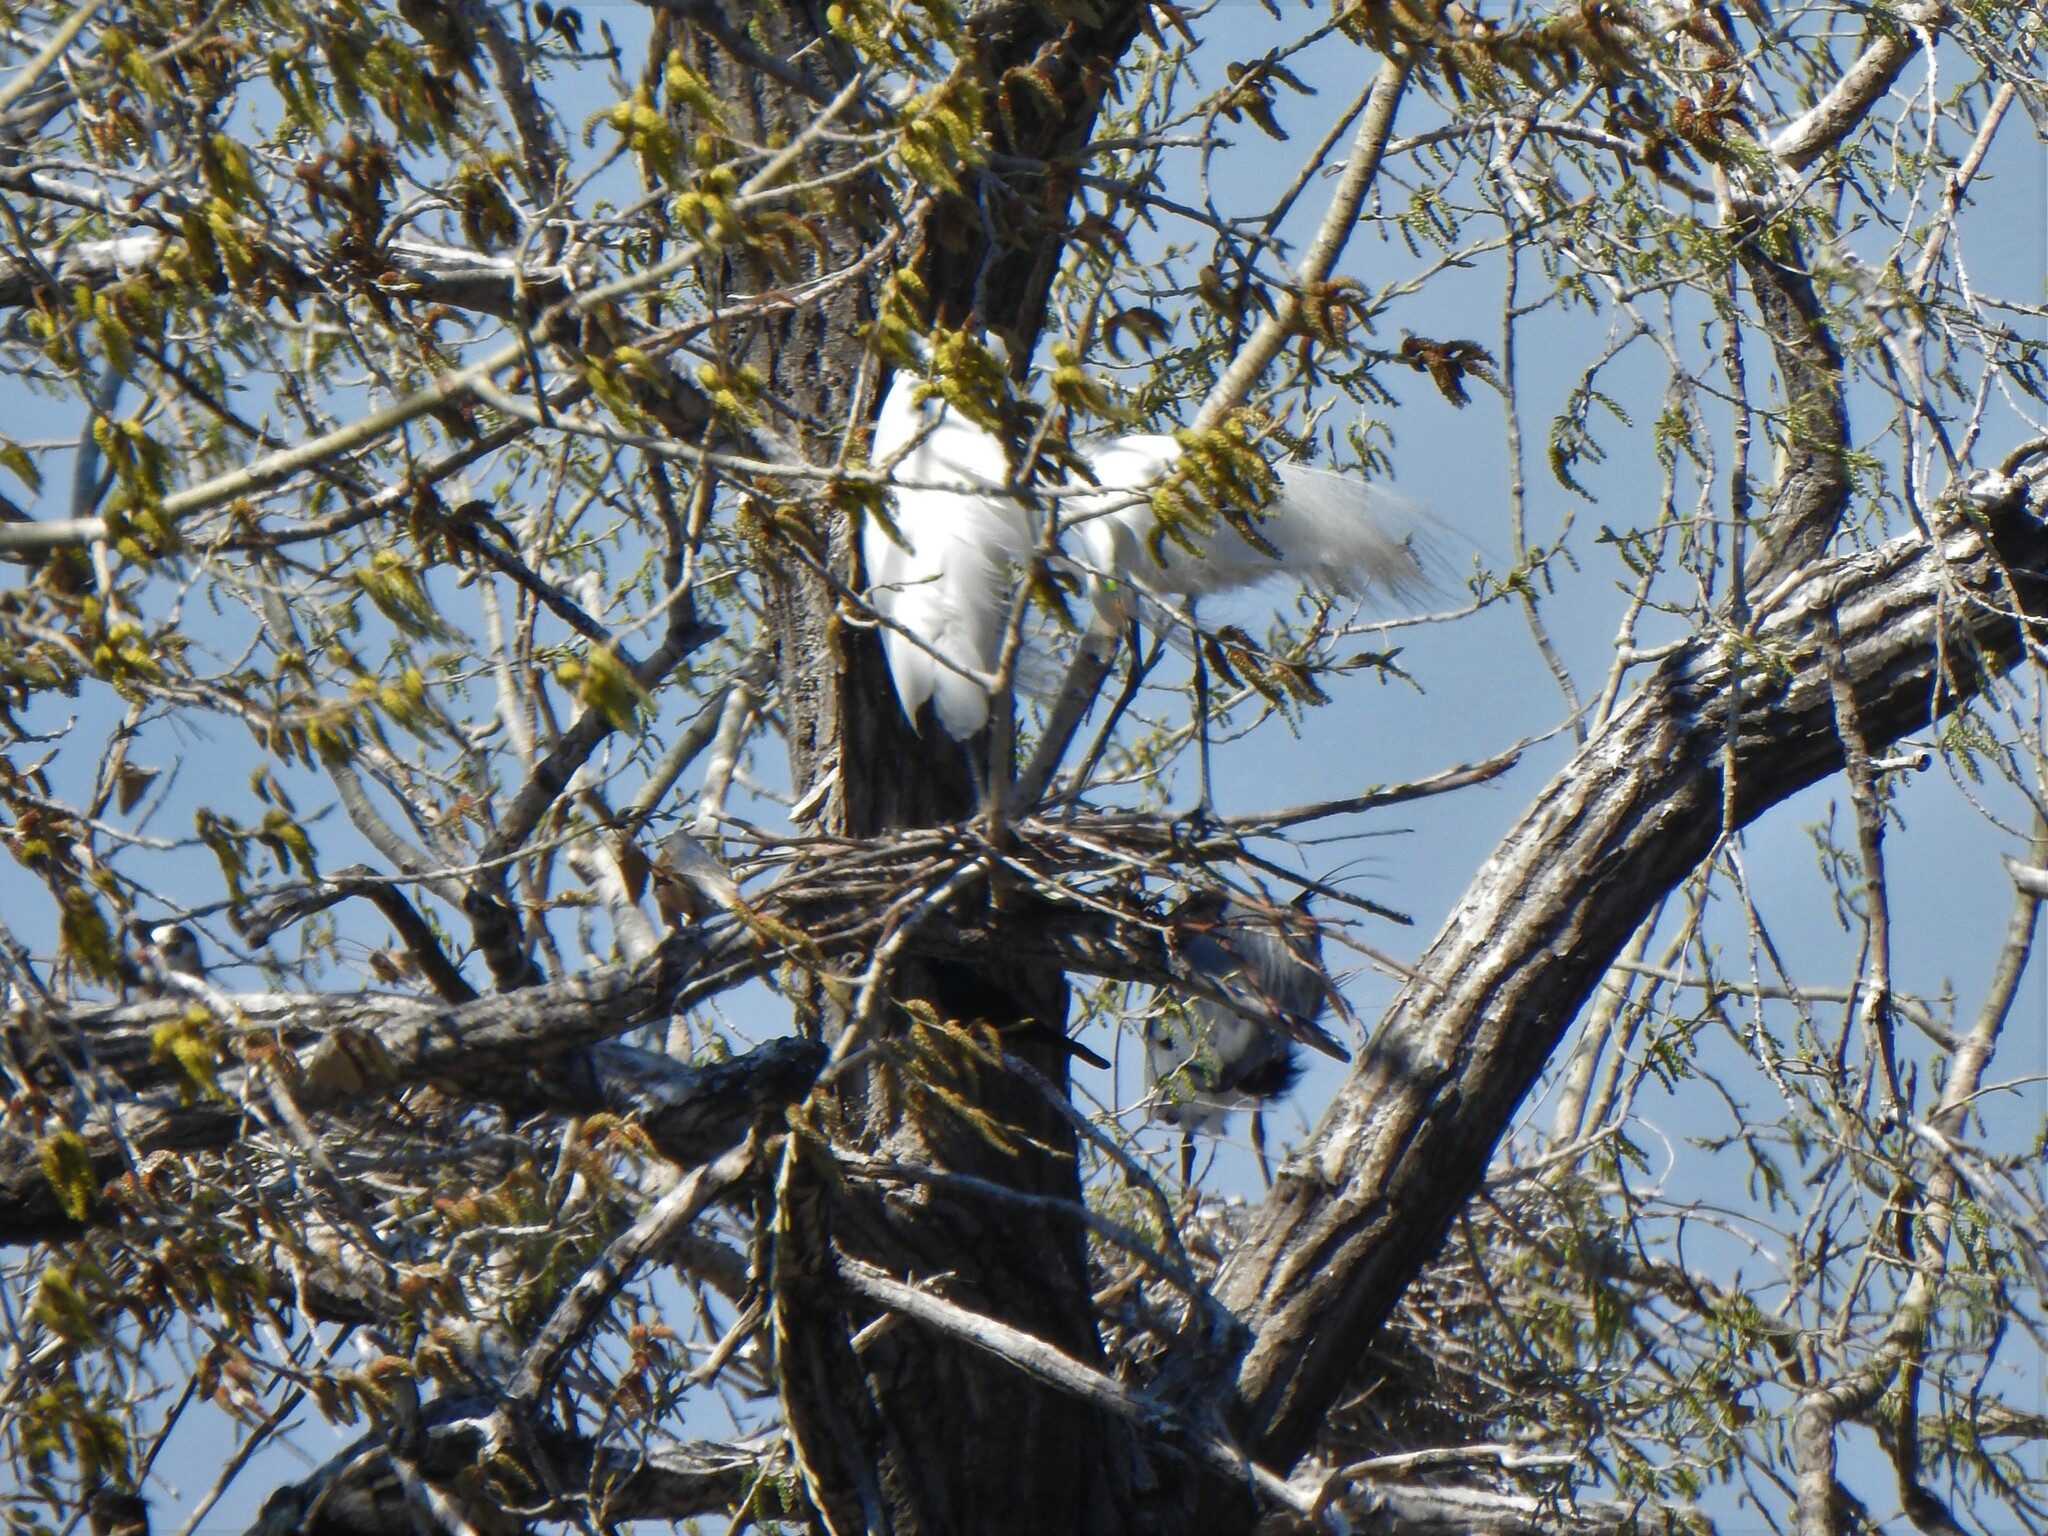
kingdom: Animalia
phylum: Chordata
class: Aves
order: Pelecaniformes
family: Ardeidae
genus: Ardea
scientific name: Ardea alba
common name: Great egret
